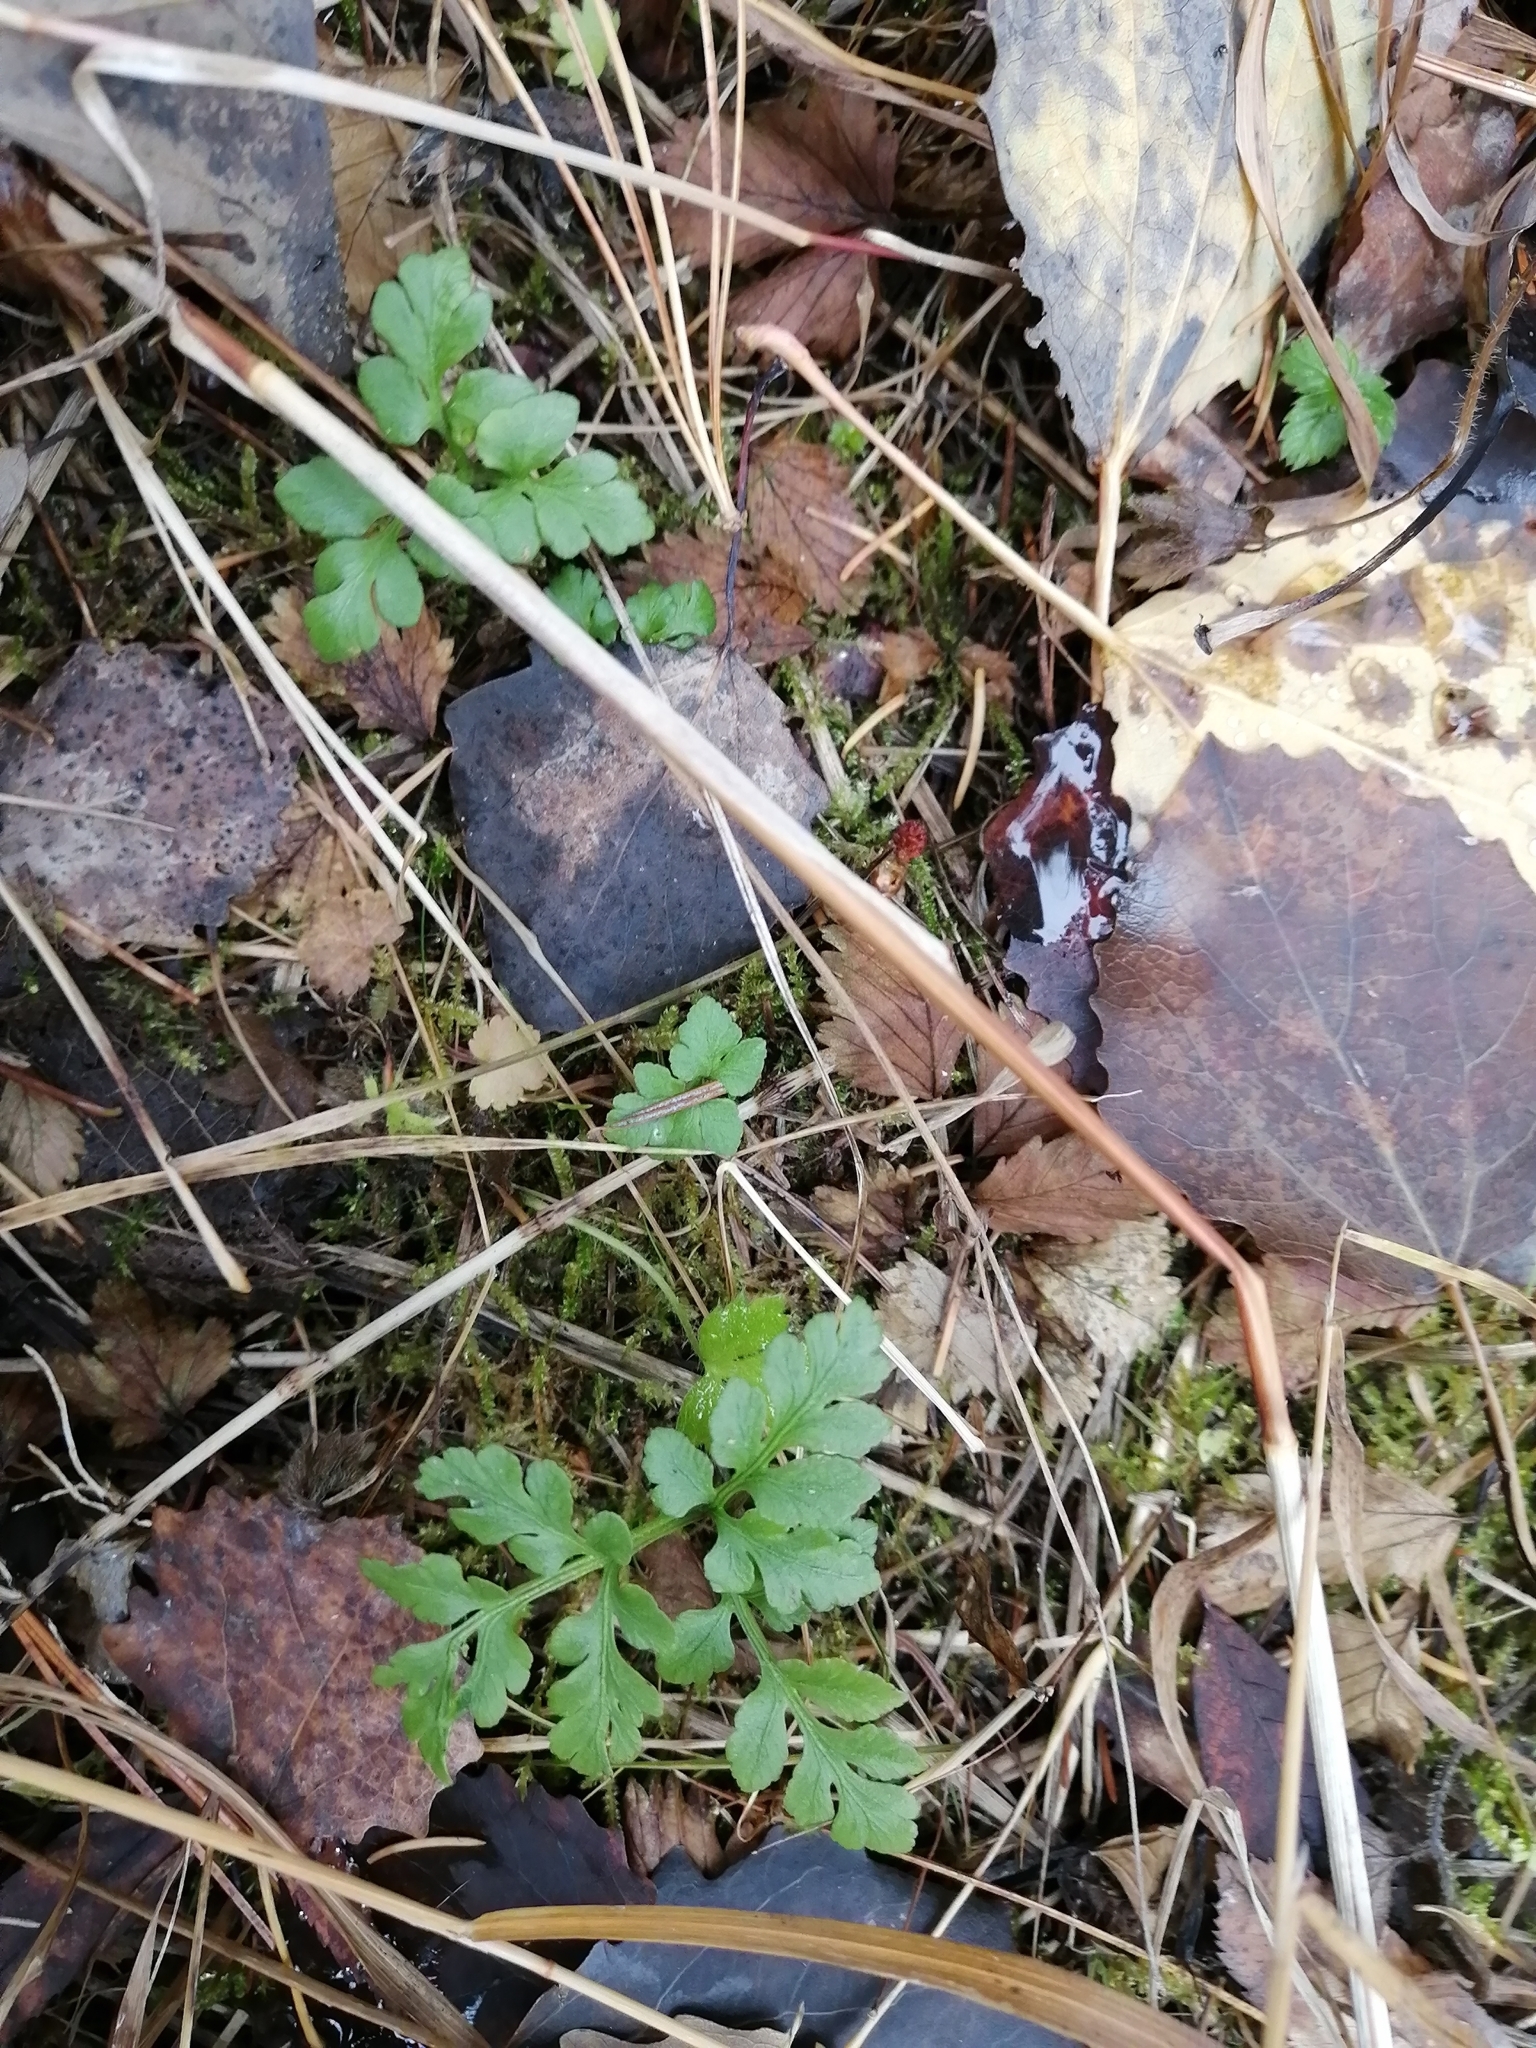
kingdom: Plantae
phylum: Tracheophyta
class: Polypodiopsida
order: Ophioglossales
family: Ophioglossaceae
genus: Sceptridium
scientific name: Sceptridium multifidum
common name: Leathery grape fern
